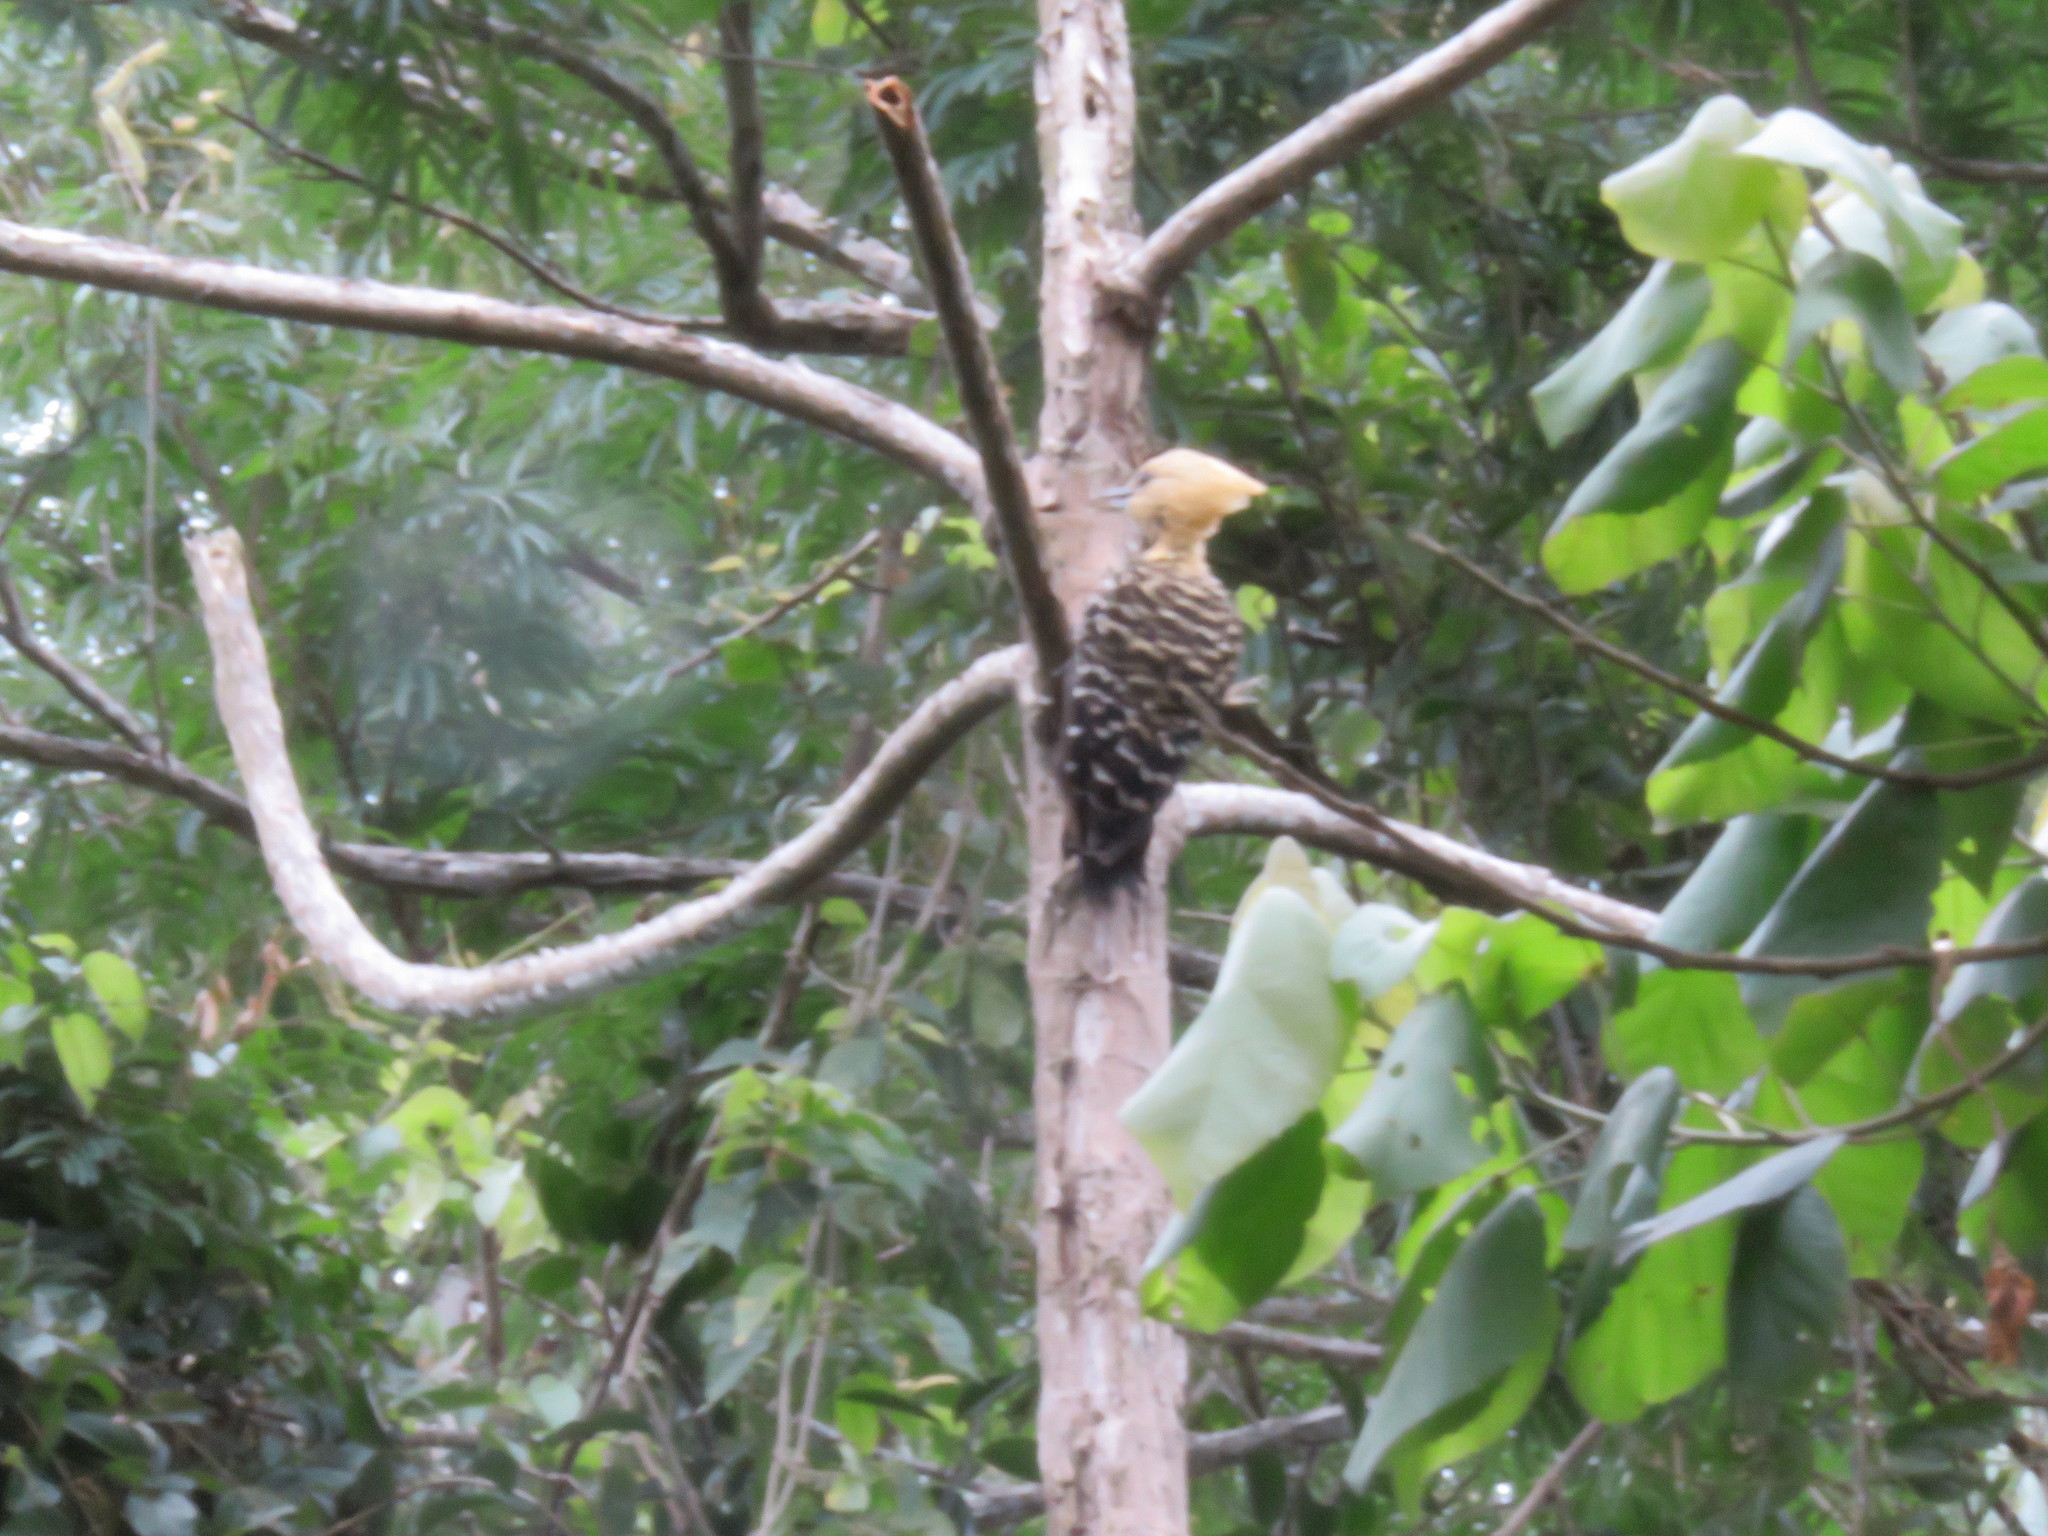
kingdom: Animalia
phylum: Chordata
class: Aves
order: Piciformes
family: Picidae
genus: Celeus
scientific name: Celeus flavescens
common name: Blond-crested woodpecker
